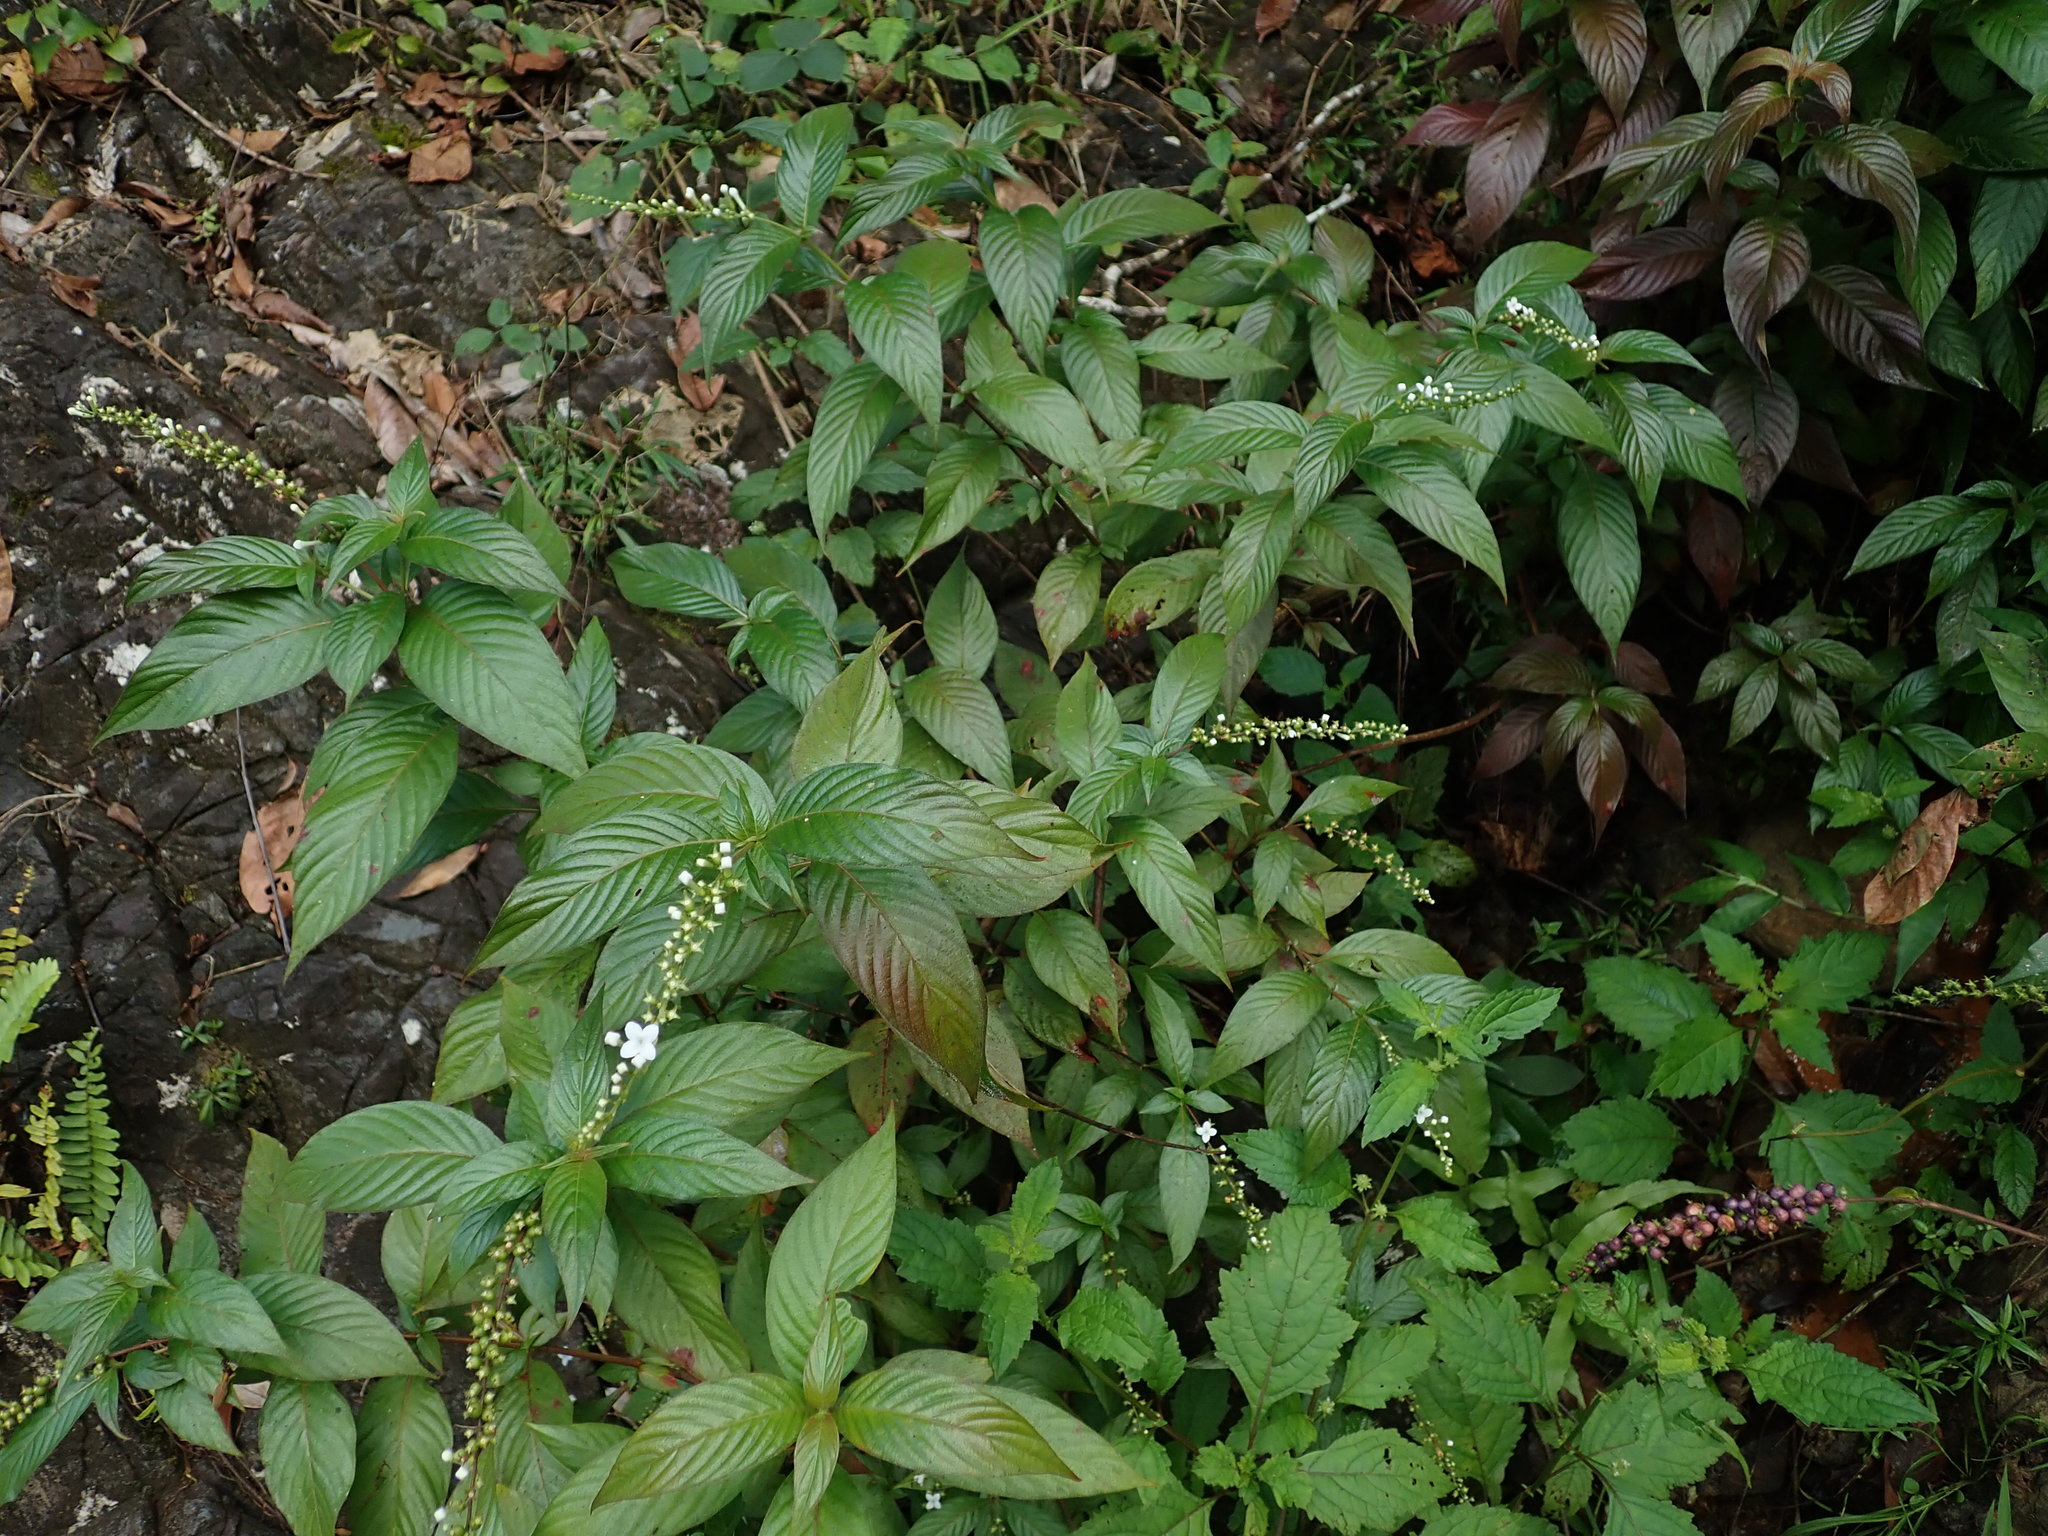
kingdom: Plantae
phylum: Tracheophyta
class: Magnoliopsida
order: Gentianales
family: Rubiaceae
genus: Gonzalagunia
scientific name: Gonzalagunia hirsuta
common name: Mata de mariposa
